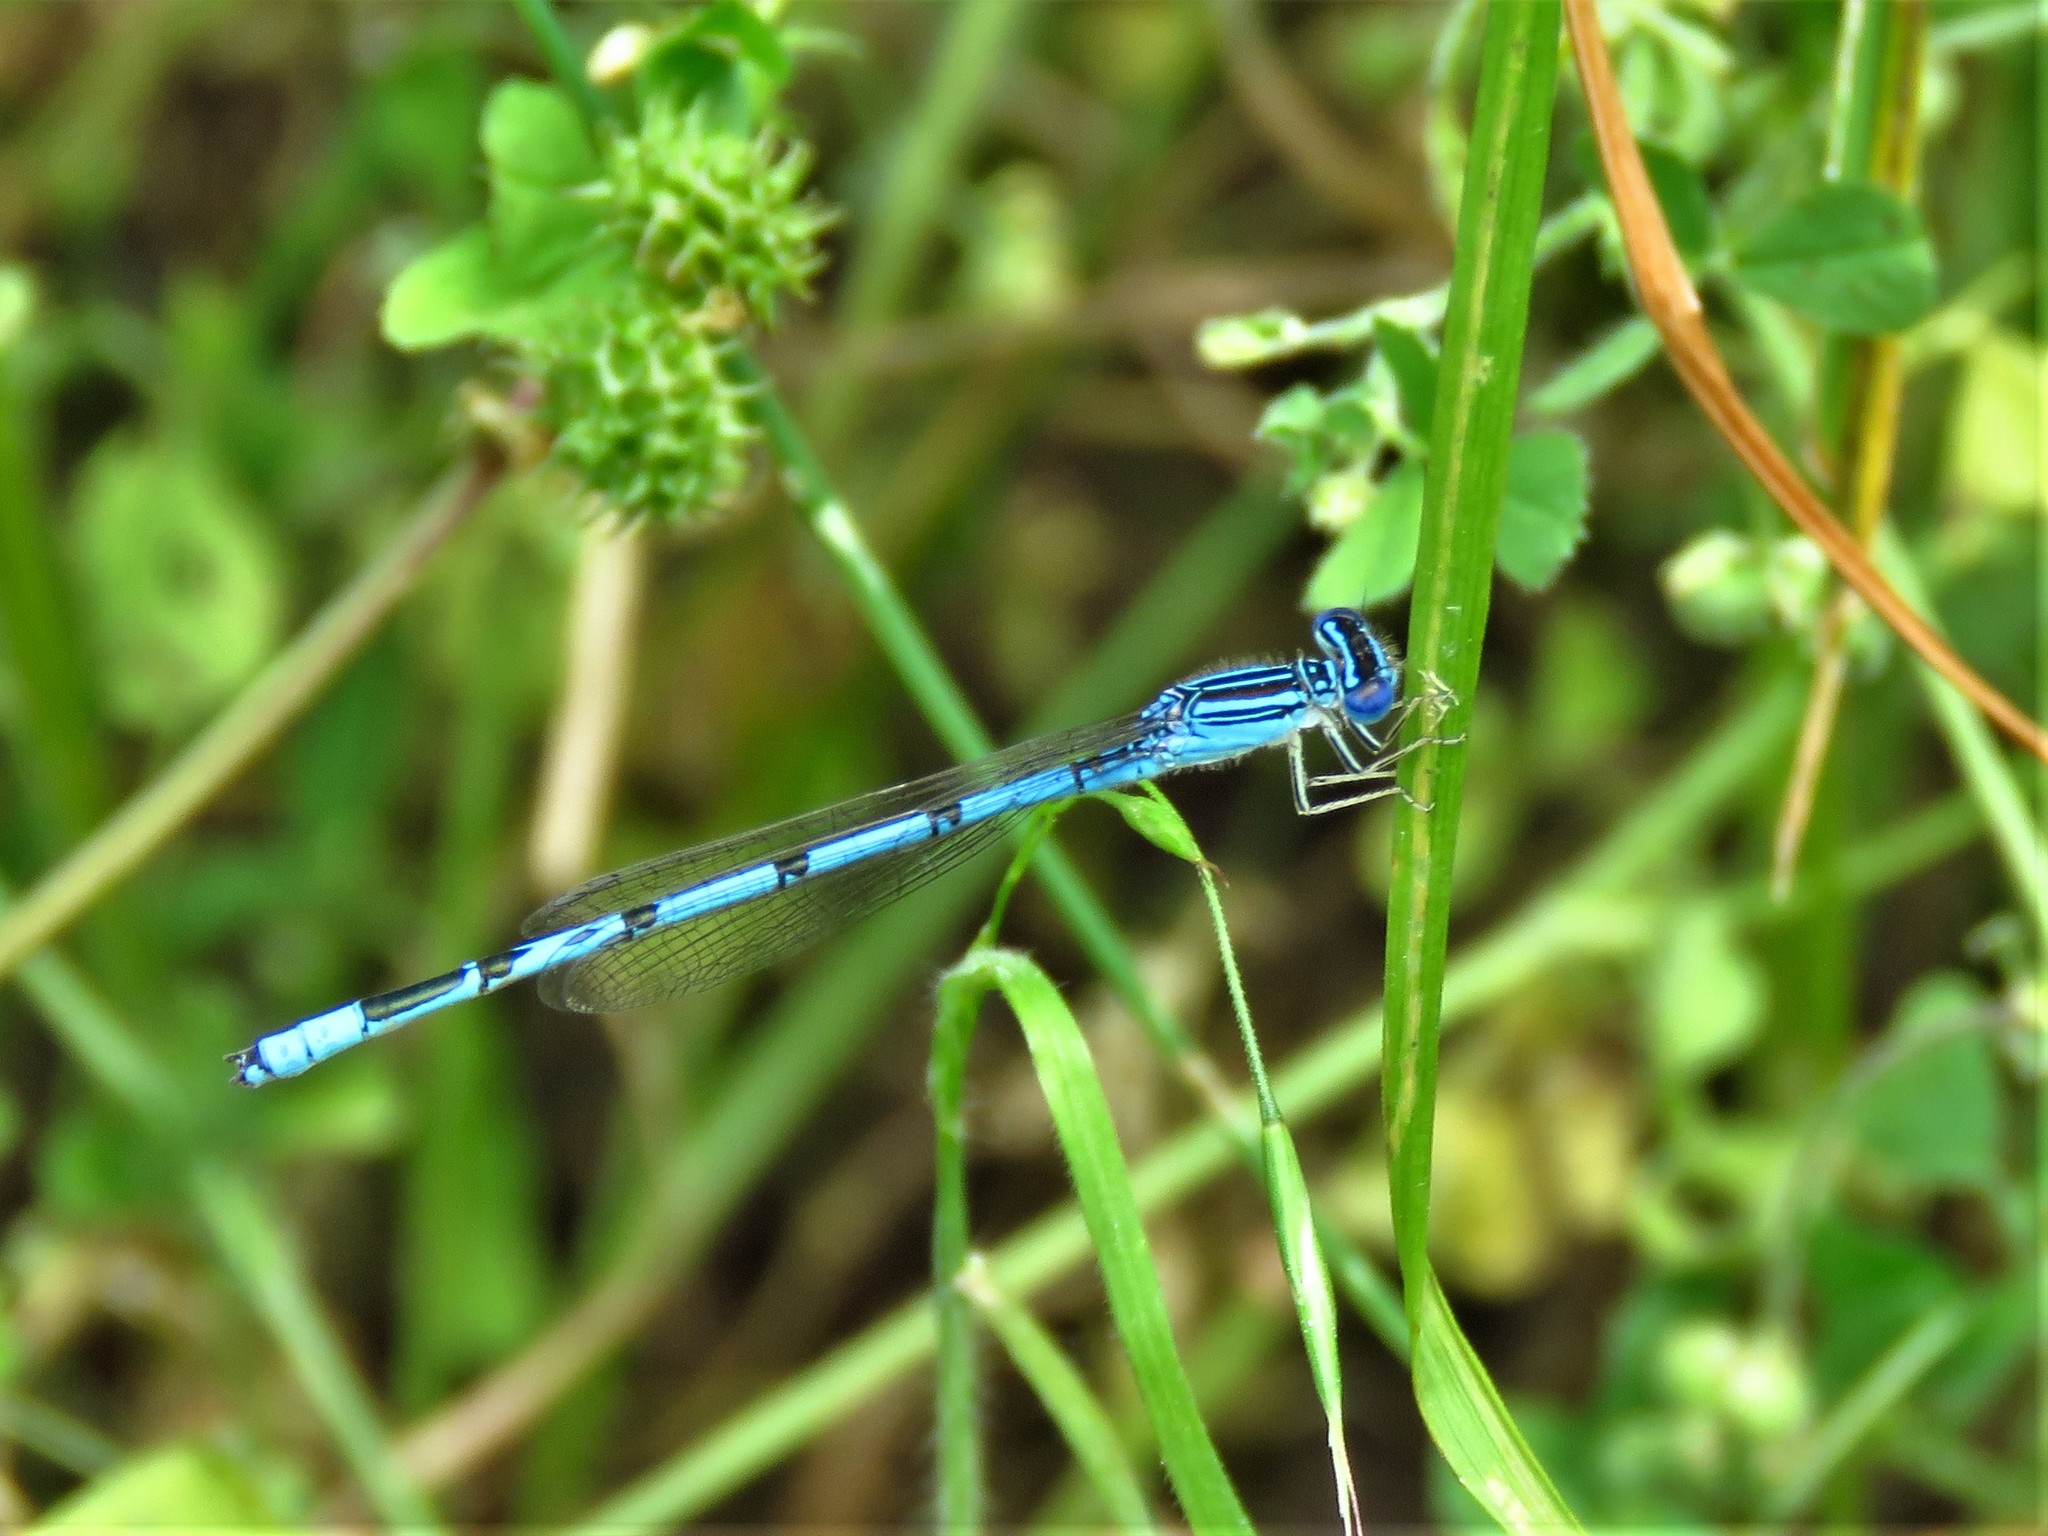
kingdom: Animalia
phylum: Arthropoda
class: Insecta
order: Odonata
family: Coenagrionidae
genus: Enallagma
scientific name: Enallagma basidens
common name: Double-striped bluet
